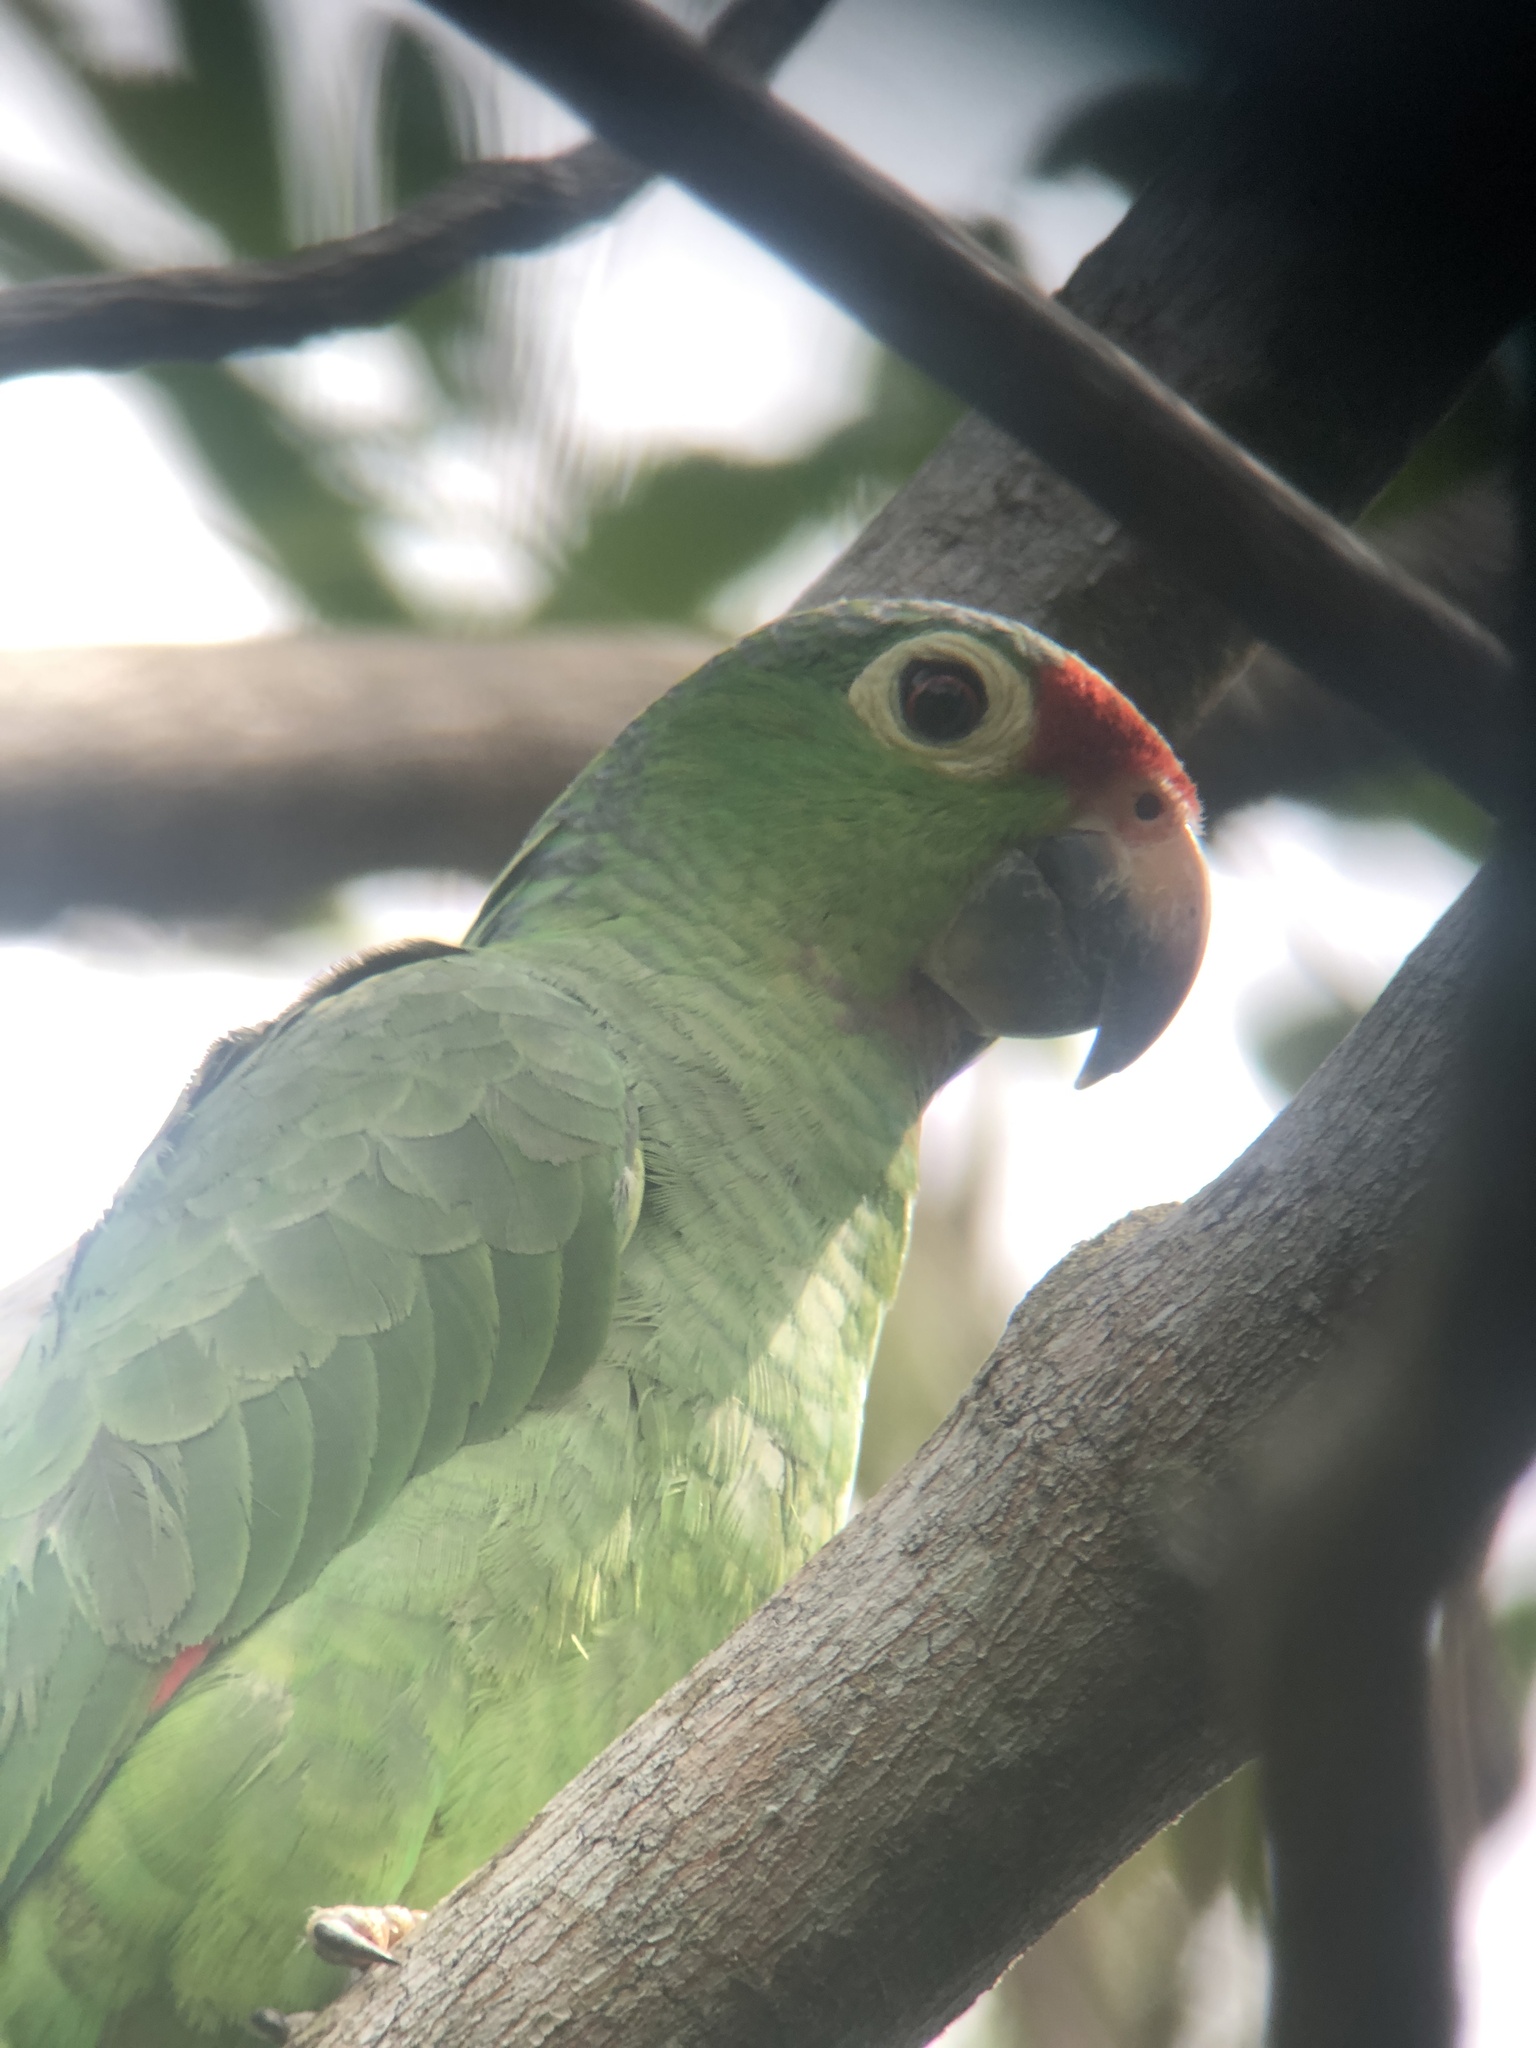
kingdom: Animalia
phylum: Chordata
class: Aves
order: Psittaciformes
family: Psittacidae
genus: Amazona
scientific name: Amazona autumnalis
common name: Red-lored amazon
